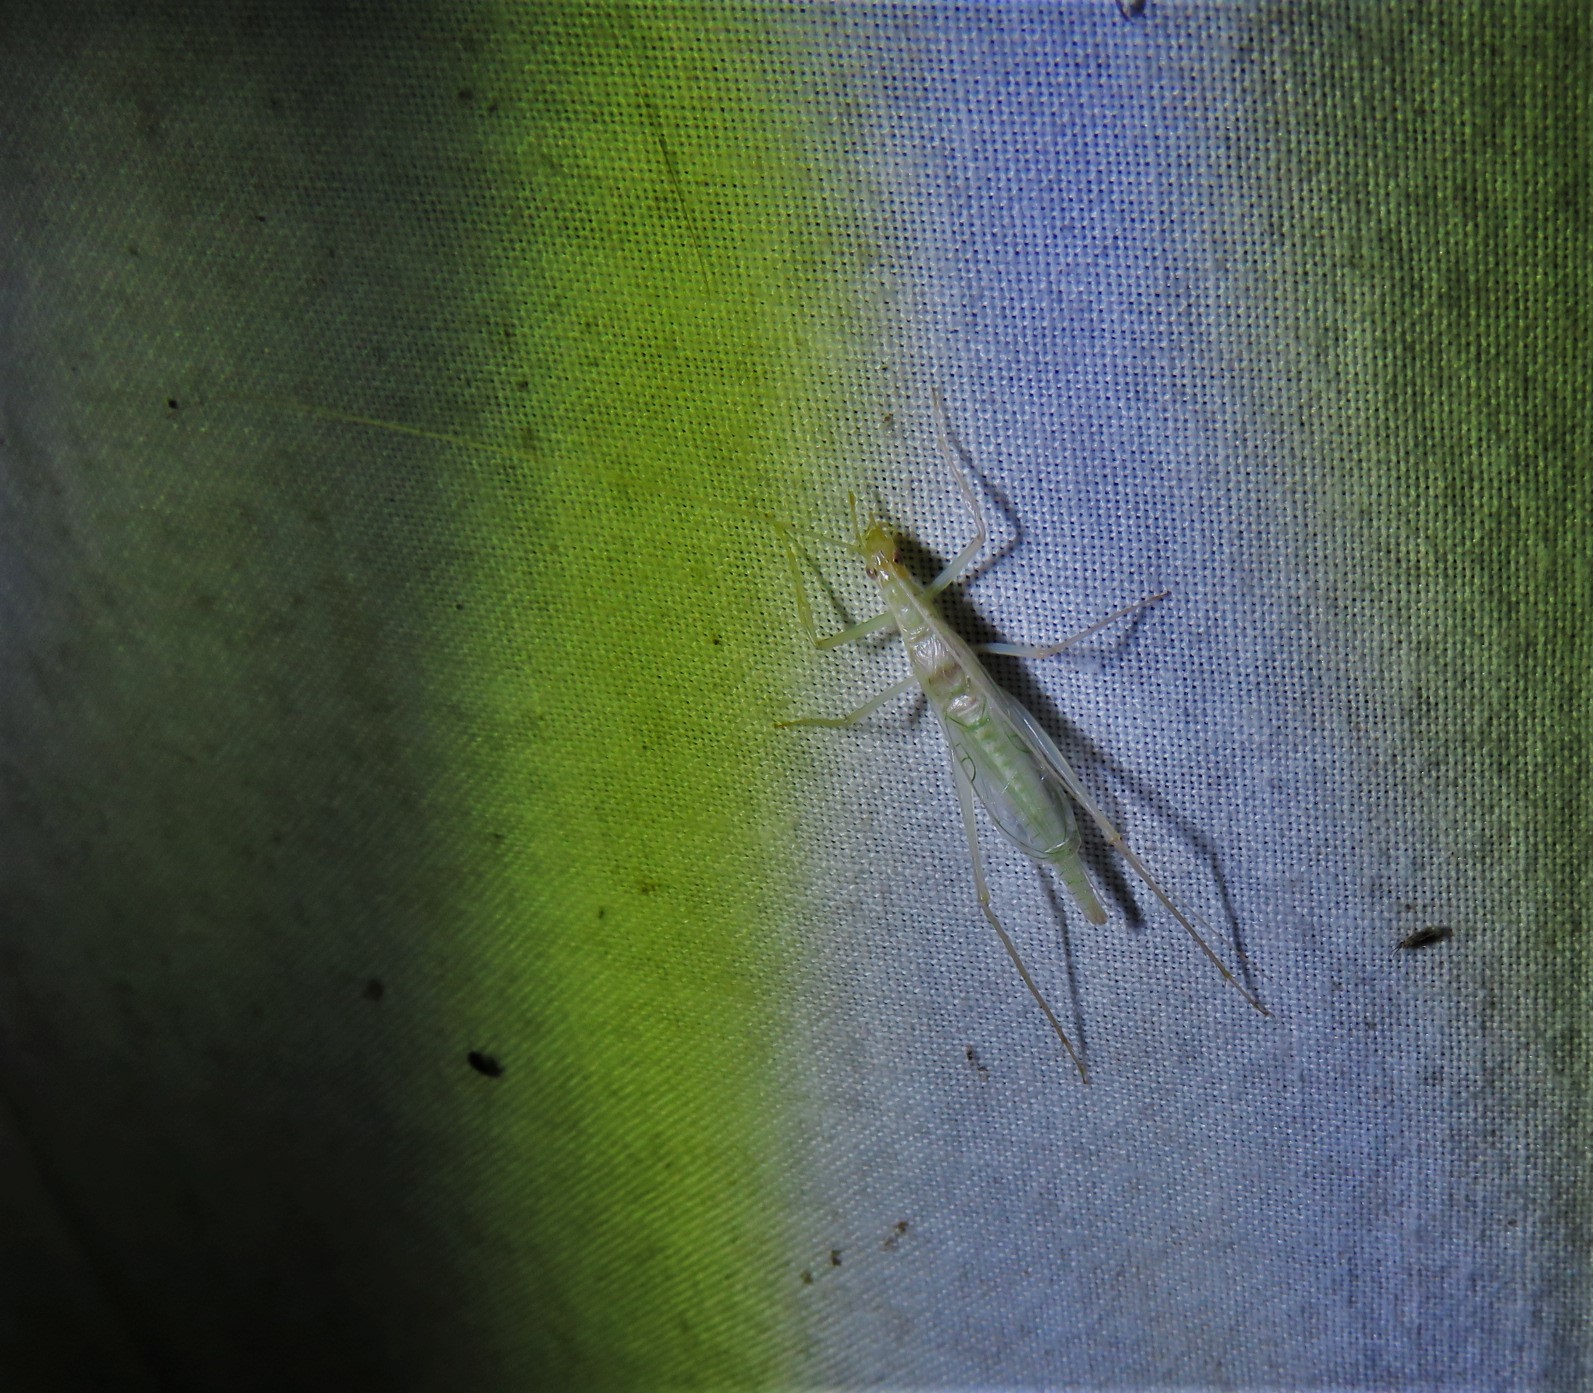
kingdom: Animalia
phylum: Arthropoda
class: Insecta
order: Orthoptera
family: Gryllidae
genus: Oecanthus
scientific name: Oecanthus leptogrammus
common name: Thin-lined tree cricket
